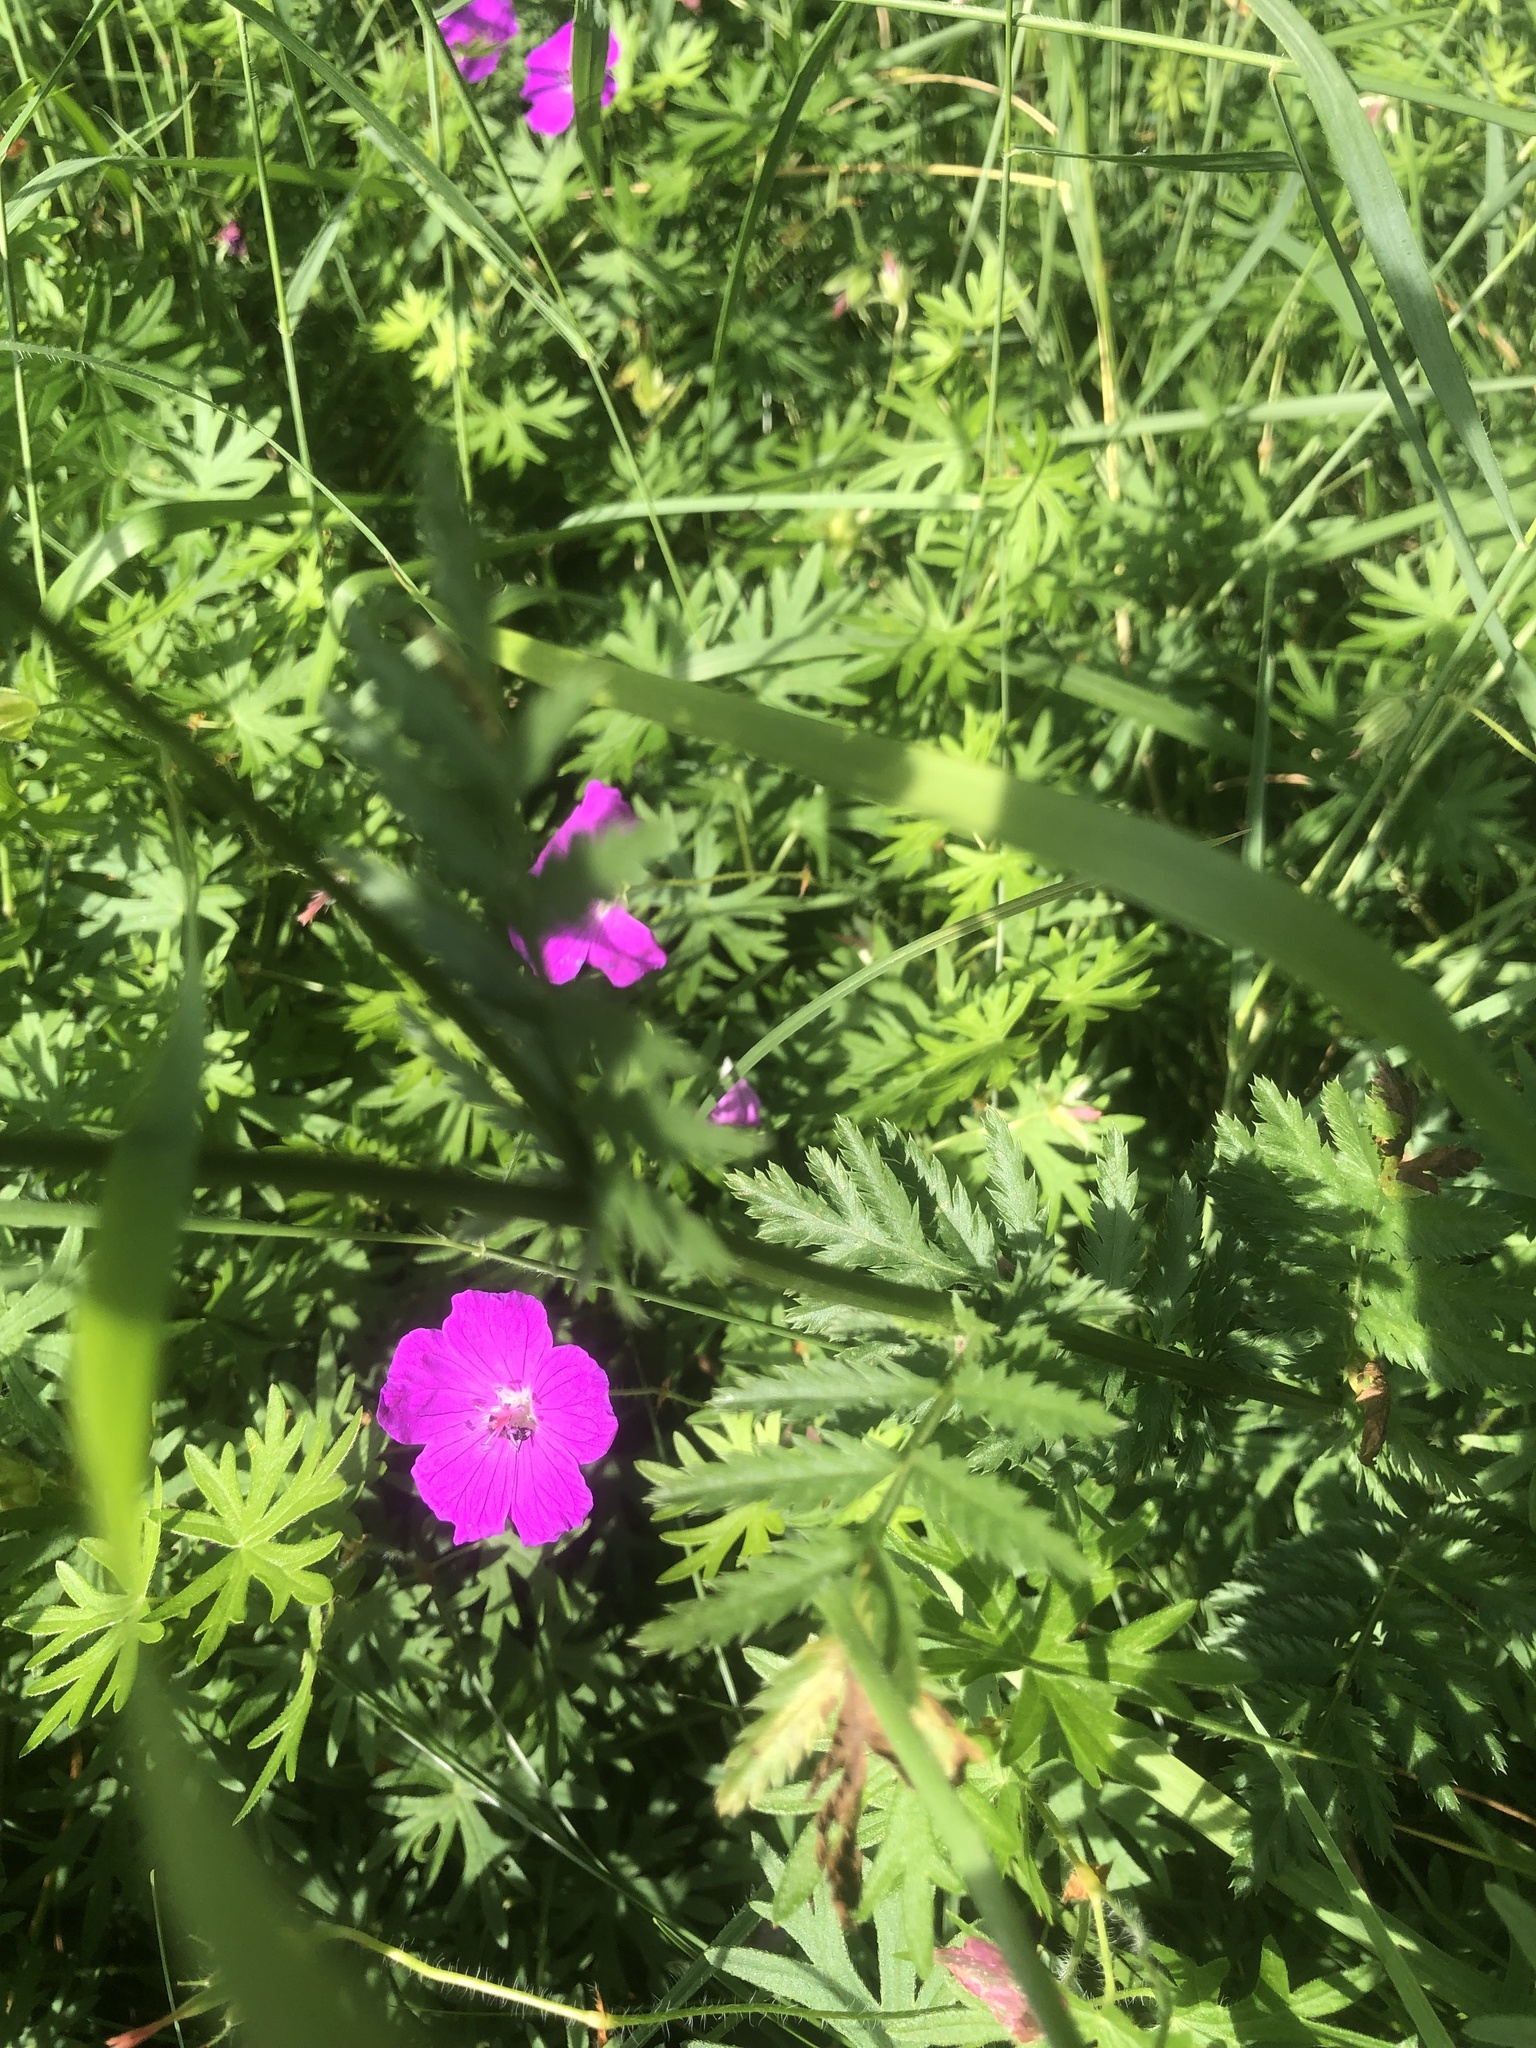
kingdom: Plantae
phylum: Tracheophyta
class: Magnoliopsida
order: Asterales
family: Asteraceae
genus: Tanacetum
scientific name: Tanacetum corymbosum
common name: Scentless feverfew
